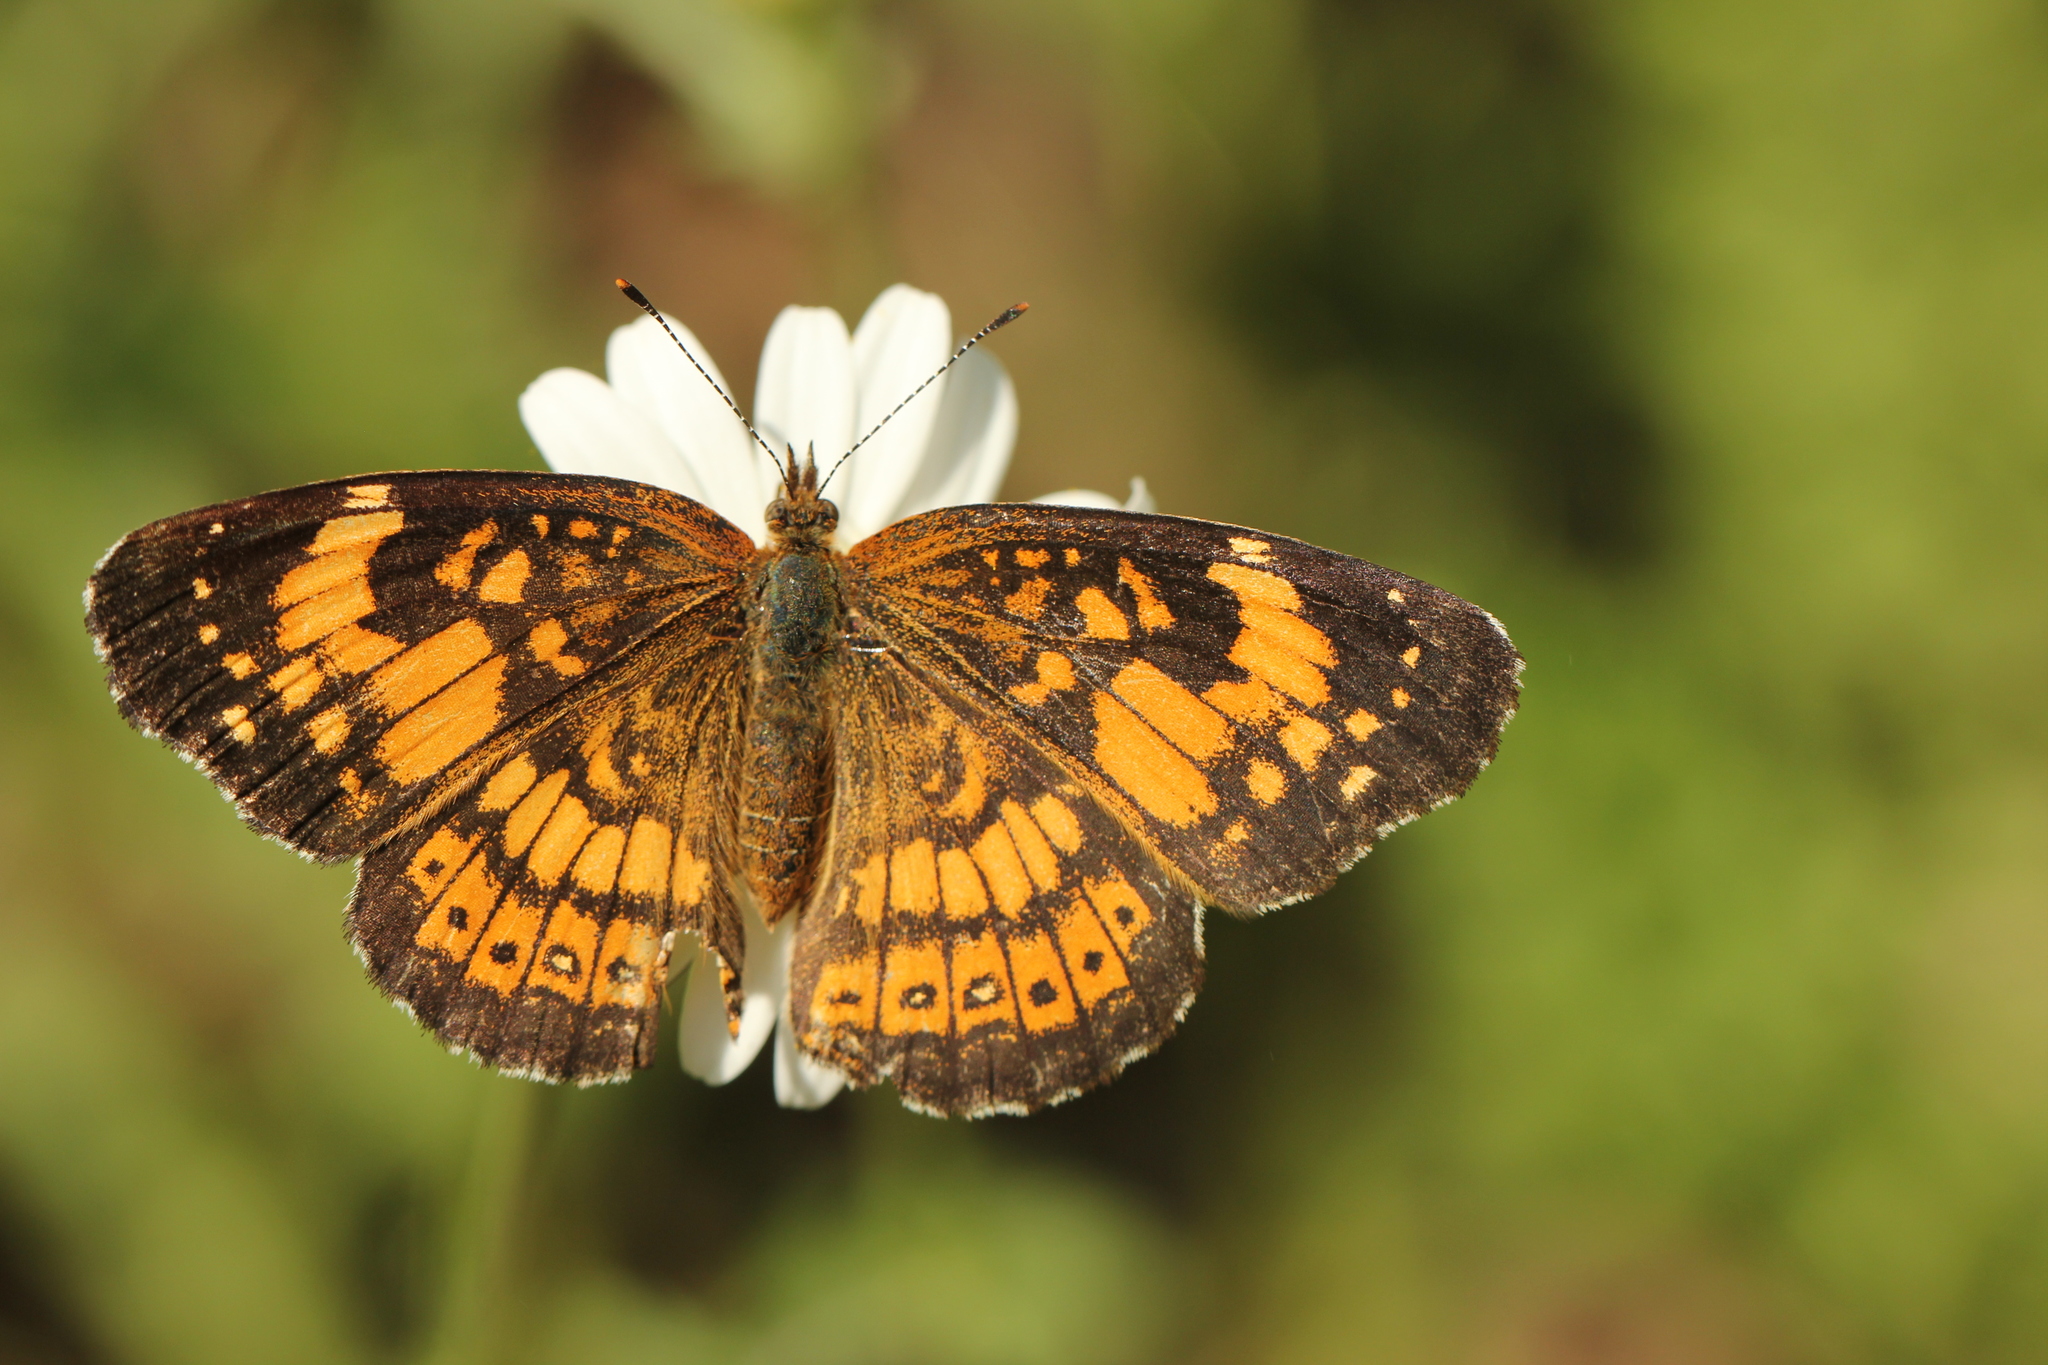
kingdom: Animalia
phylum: Arthropoda
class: Insecta
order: Lepidoptera
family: Nymphalidae
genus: Chlosyne
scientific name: Chlosyne nycteis
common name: Silvery checkerspot
